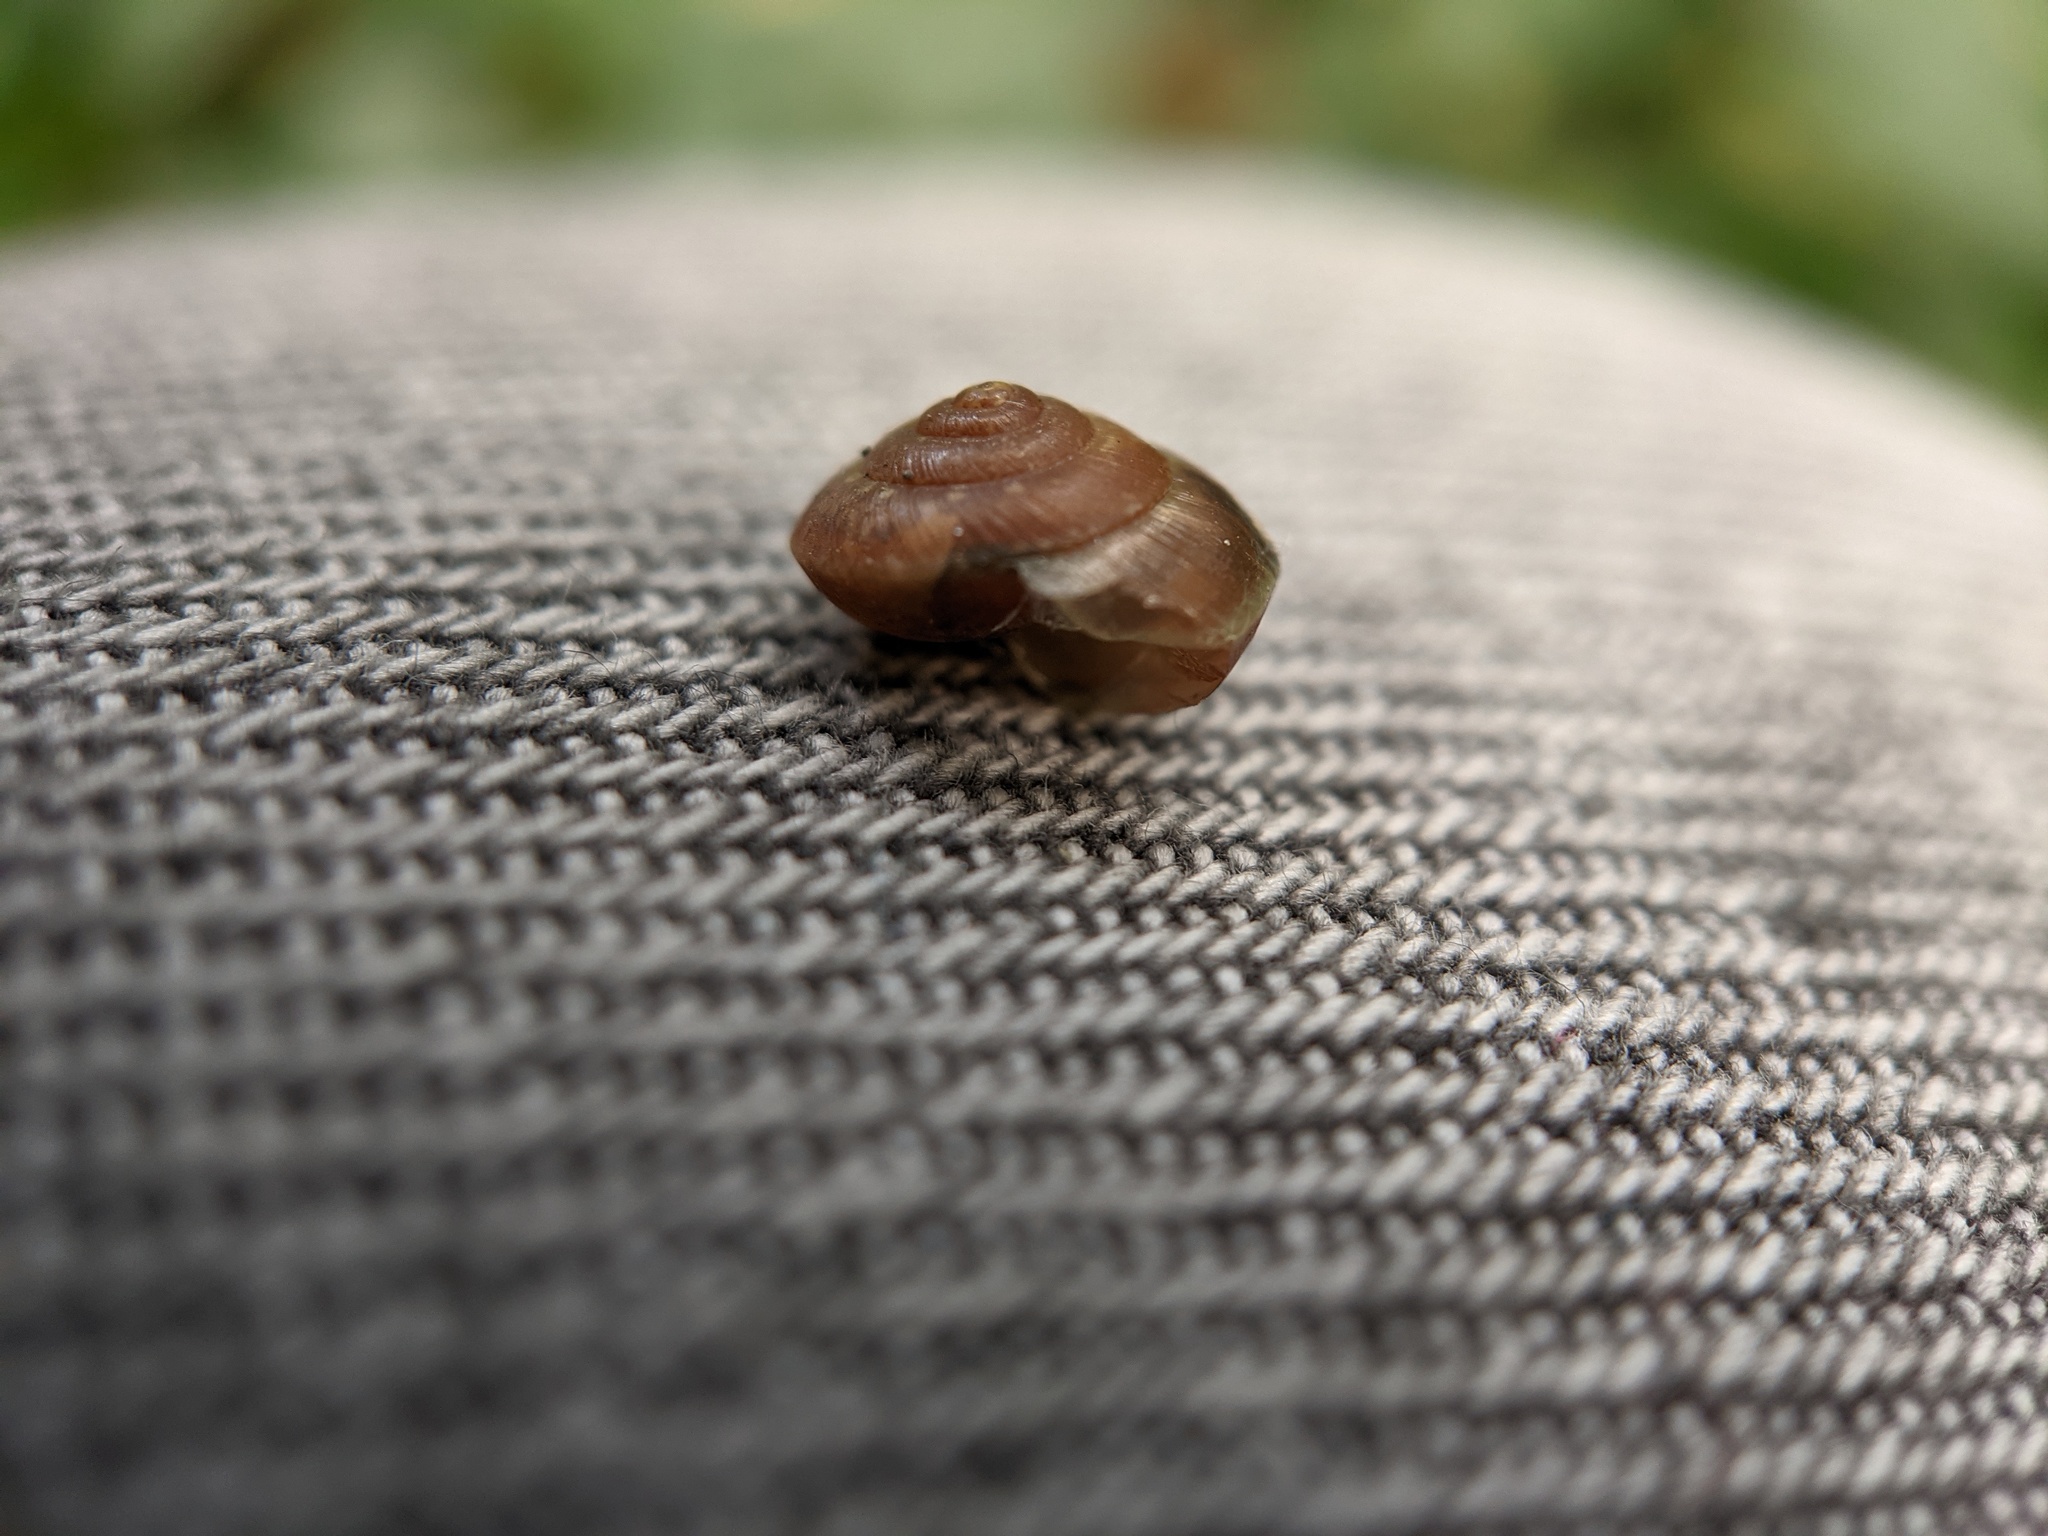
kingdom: Animalia
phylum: Mollusca
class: Gastropoda
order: Stylommatophora
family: Hygromiidae
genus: Hygromia
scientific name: Hygromia cinctella
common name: Girdled snail
